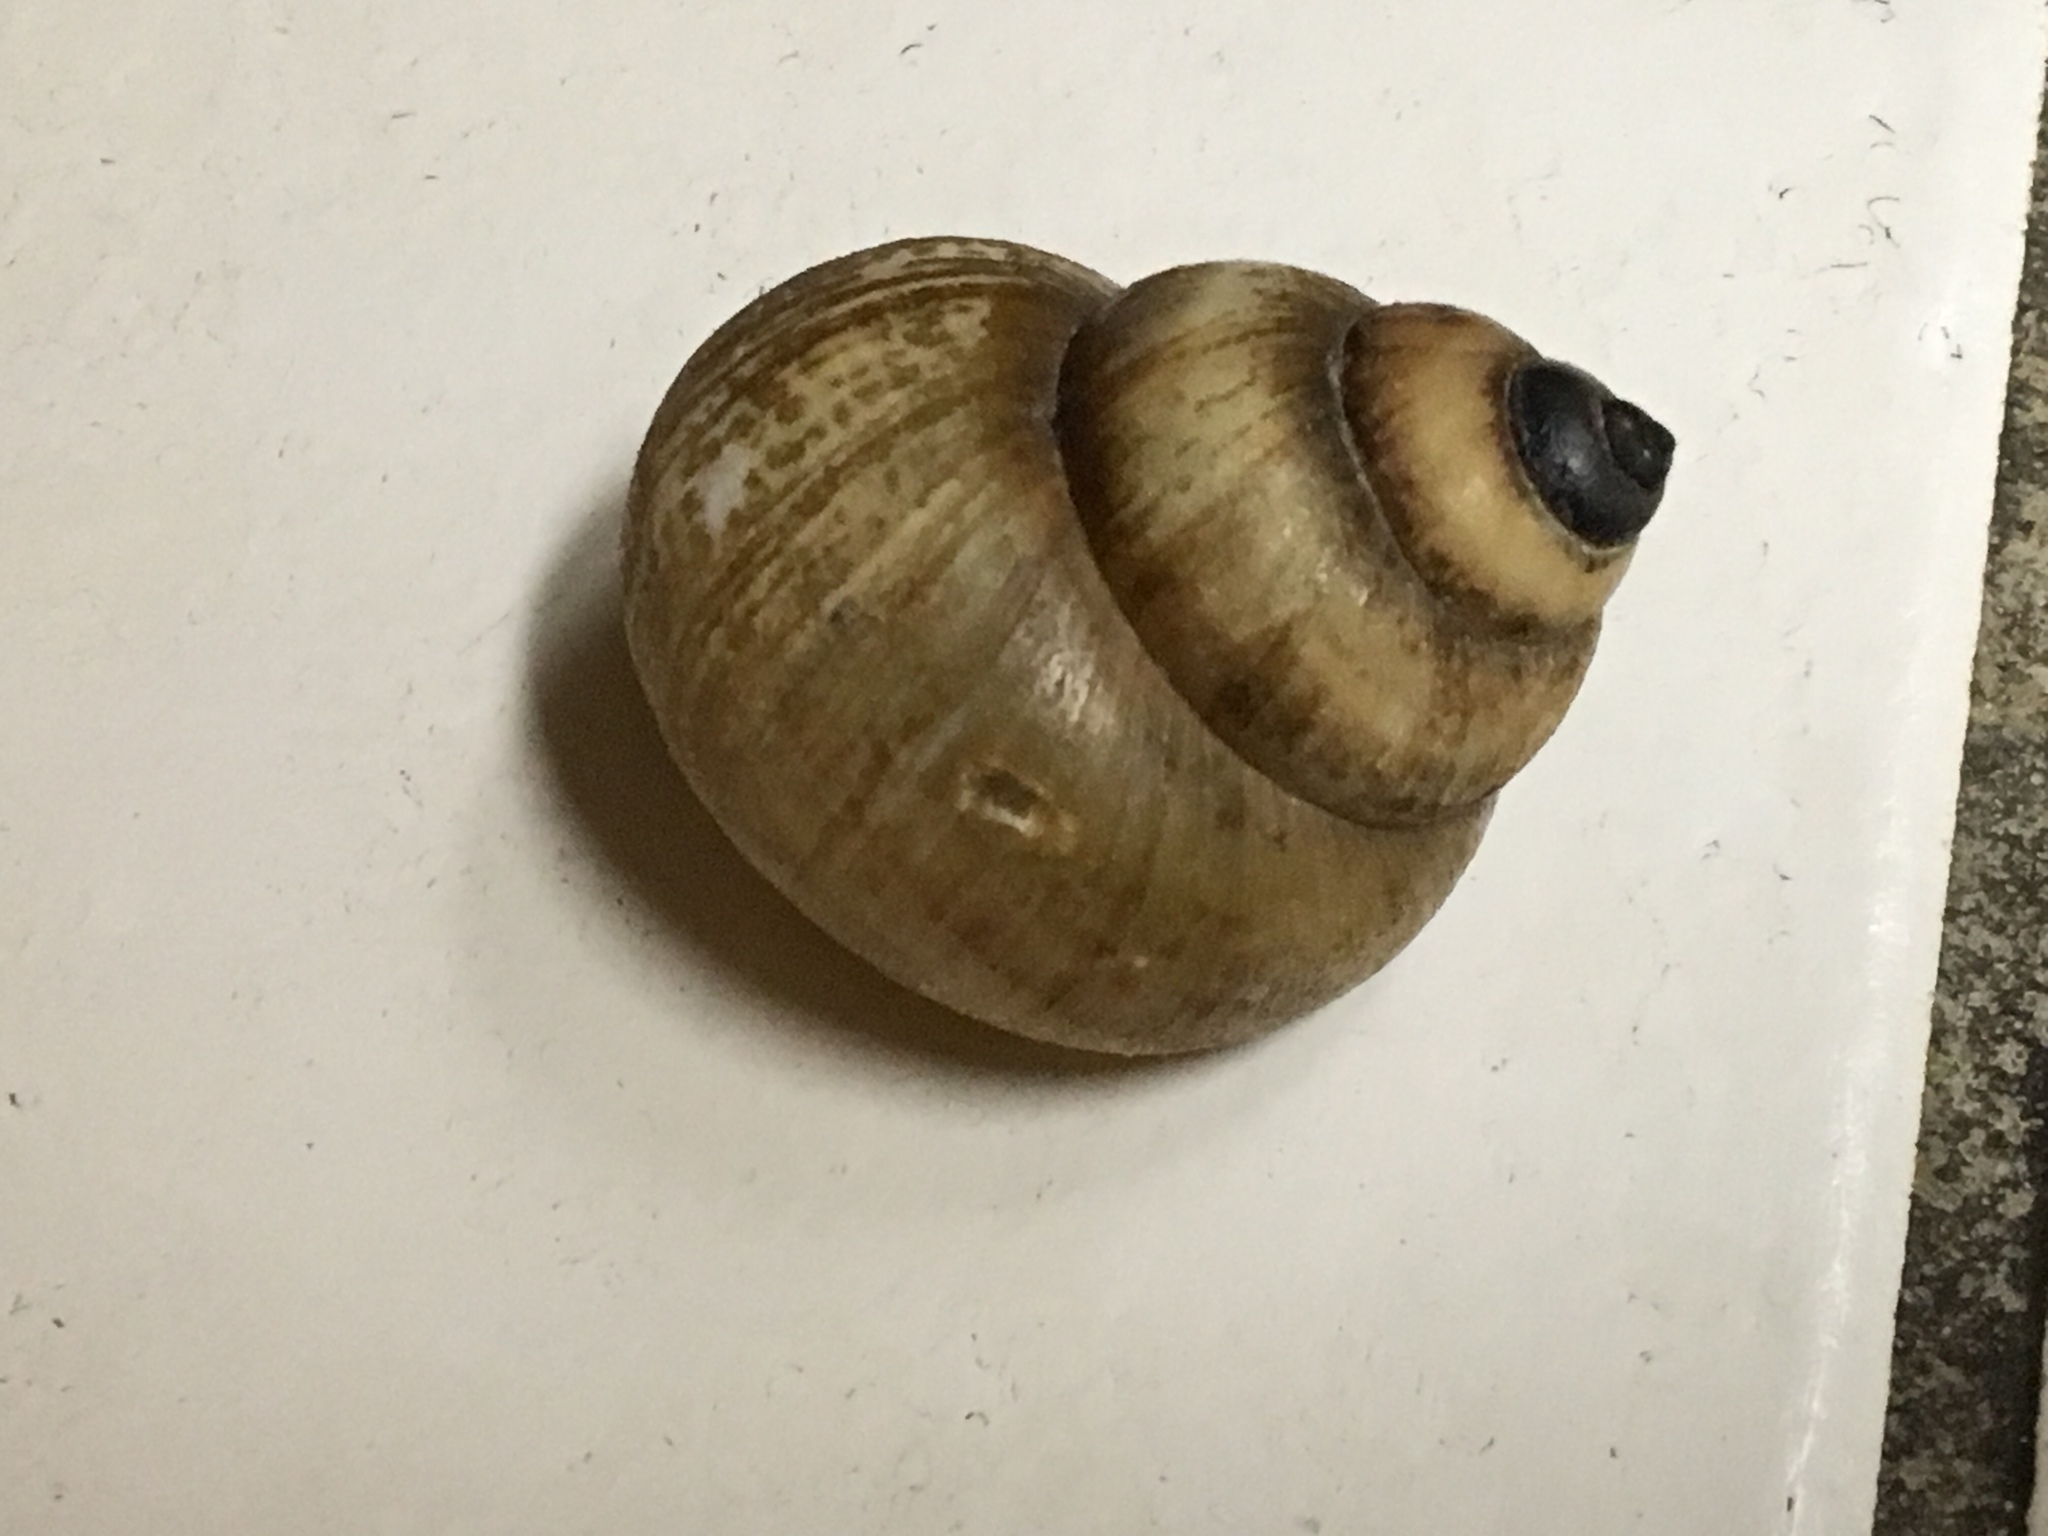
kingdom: Animalia
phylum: Mollusca
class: Gastropoda
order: Architaenioglossa
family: Viviparidae
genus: Cipangopaludina
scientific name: Cipangopaludina chinensis
